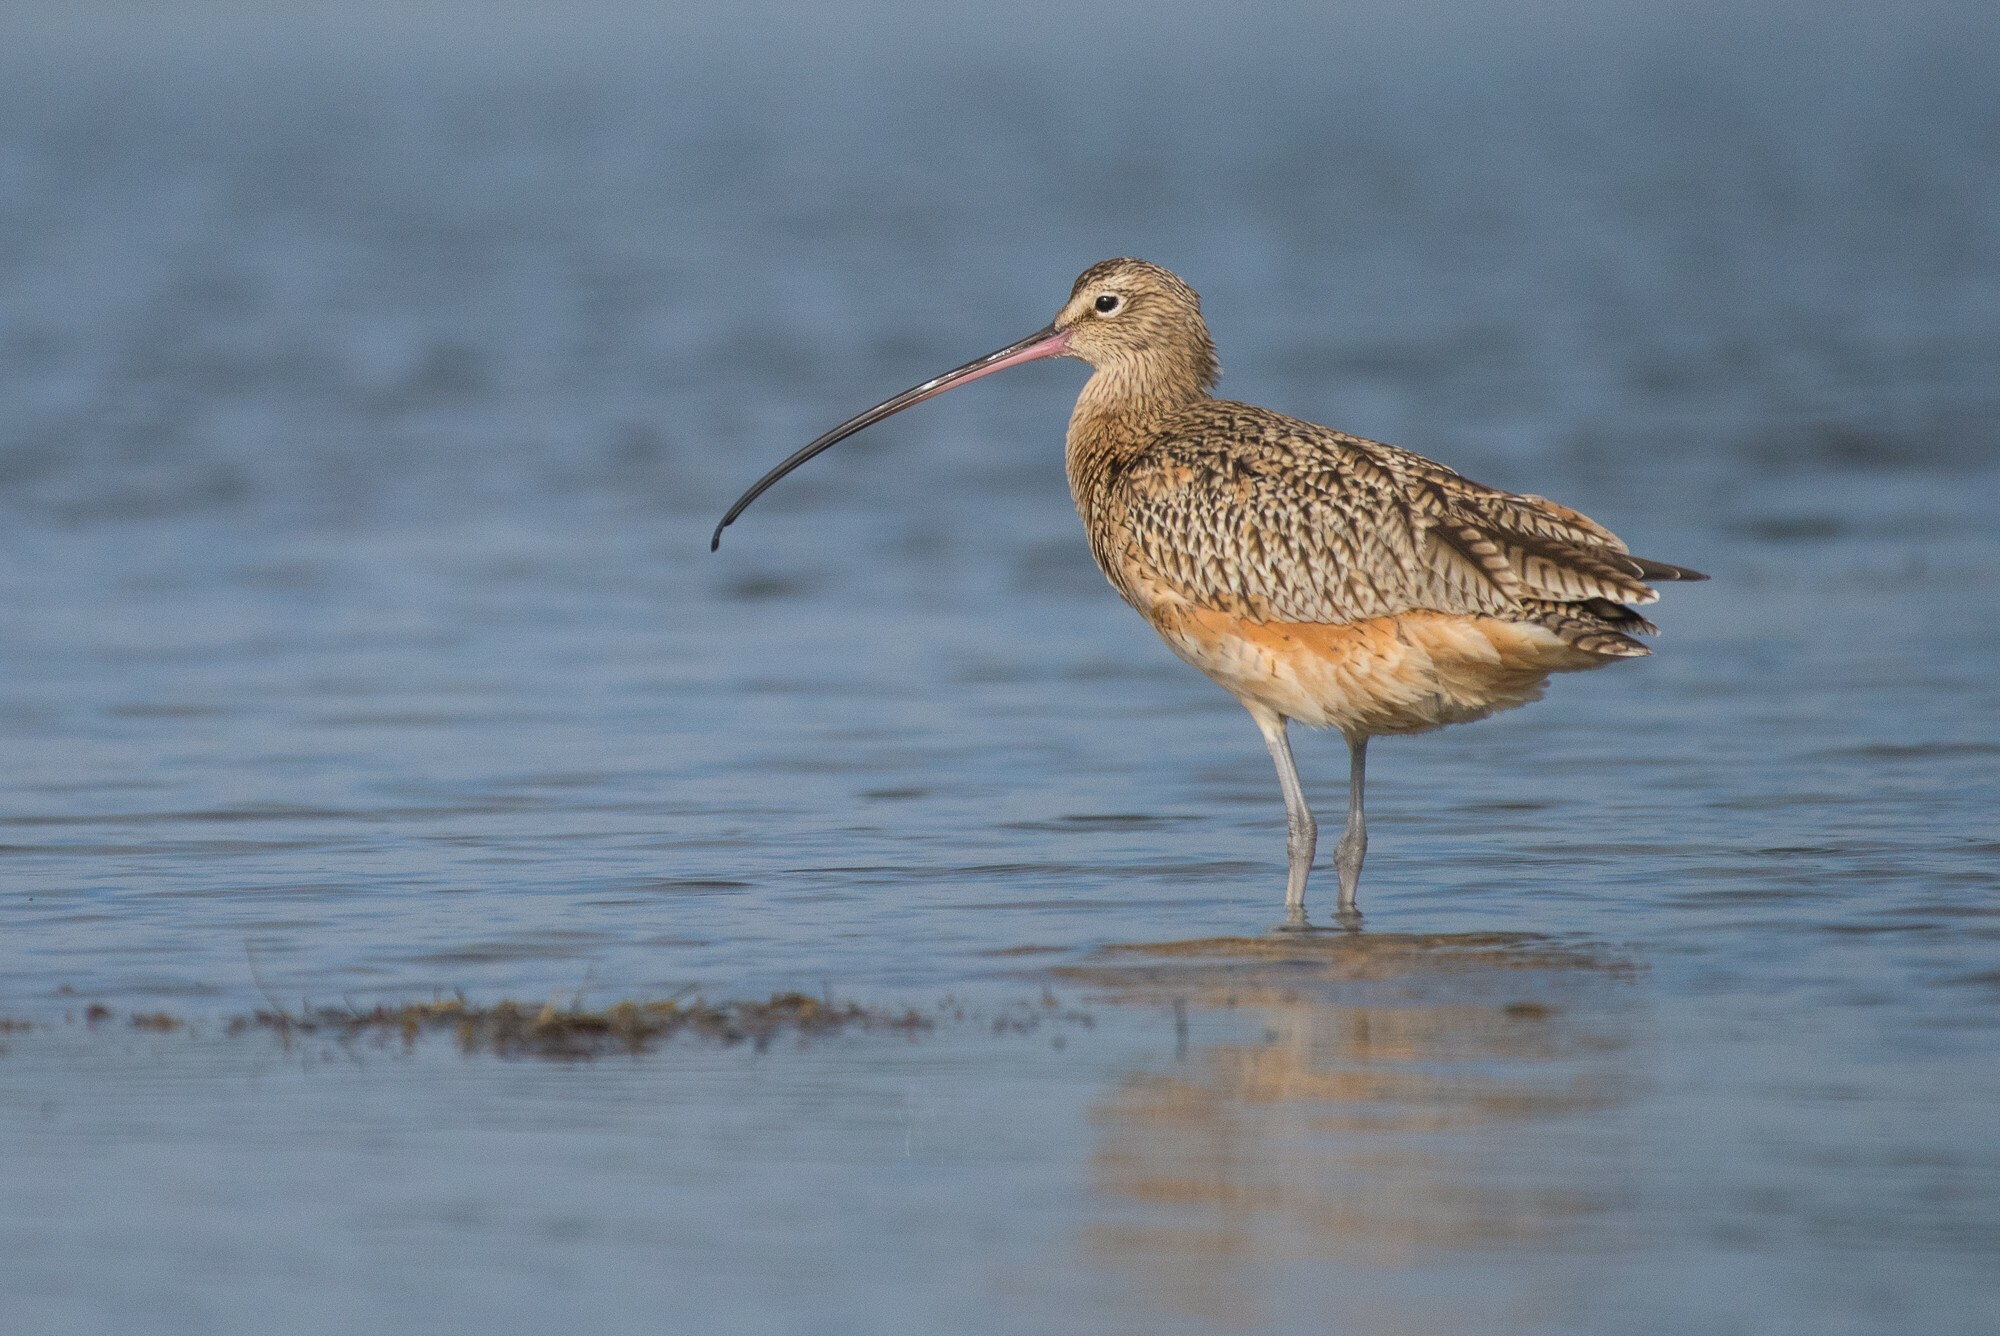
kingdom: Animalia
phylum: Chordata
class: Aves
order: Charadriiformes
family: Scolopacidae
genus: Numenius
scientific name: Numenius americanus
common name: Long-billed curlew
